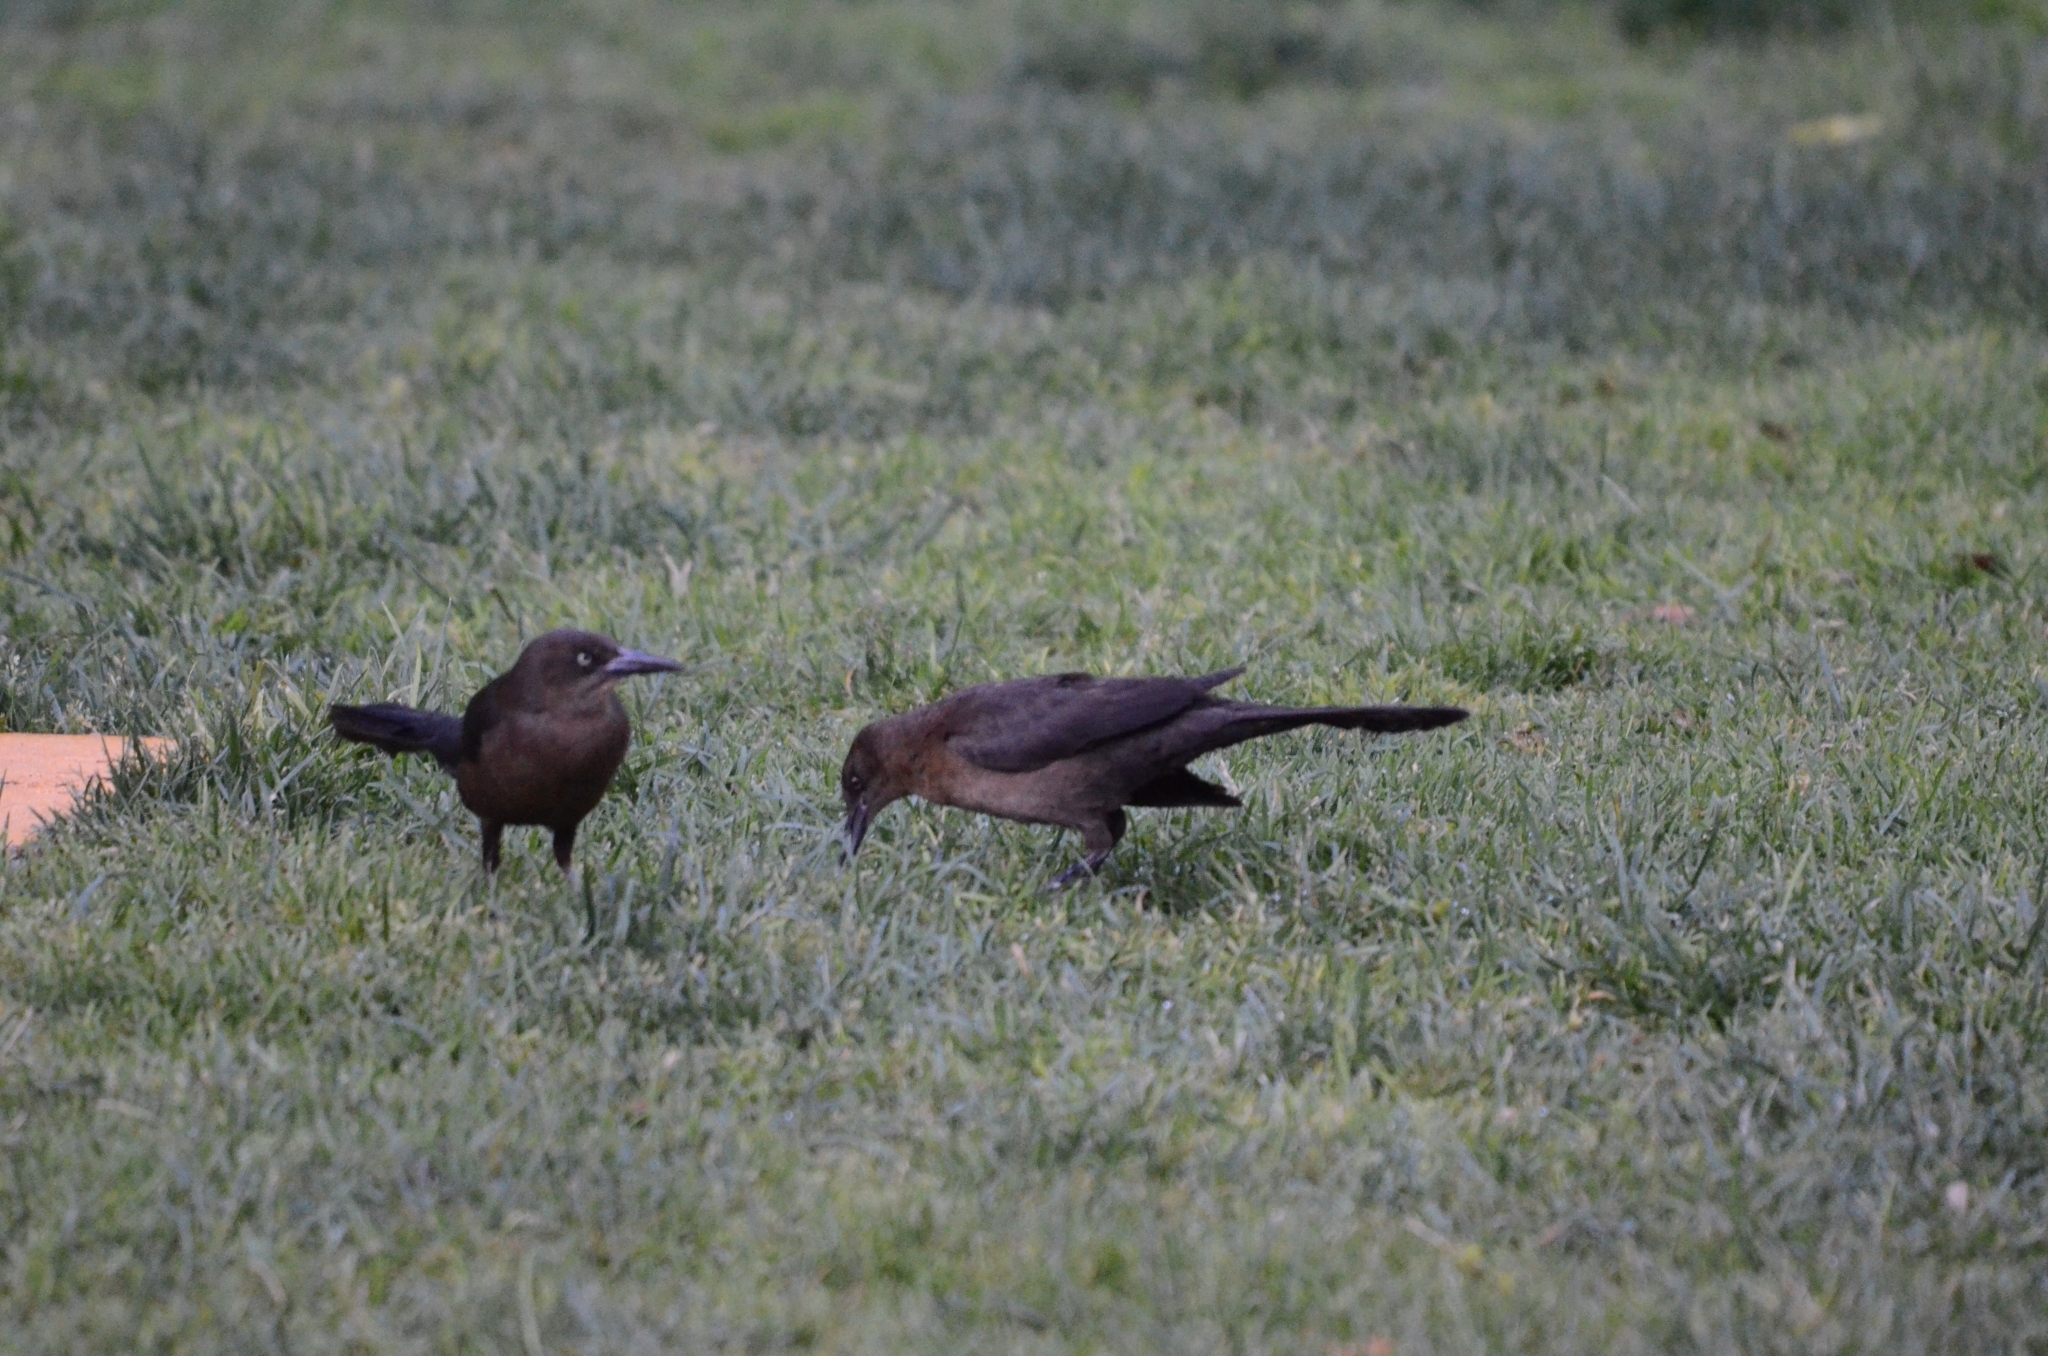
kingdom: Animalia
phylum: Chordata
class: Aves
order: Passeriformes
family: Icteridae
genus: Quiscalus
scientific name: Quiscalus mexicanus
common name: Great-tailed grackle
